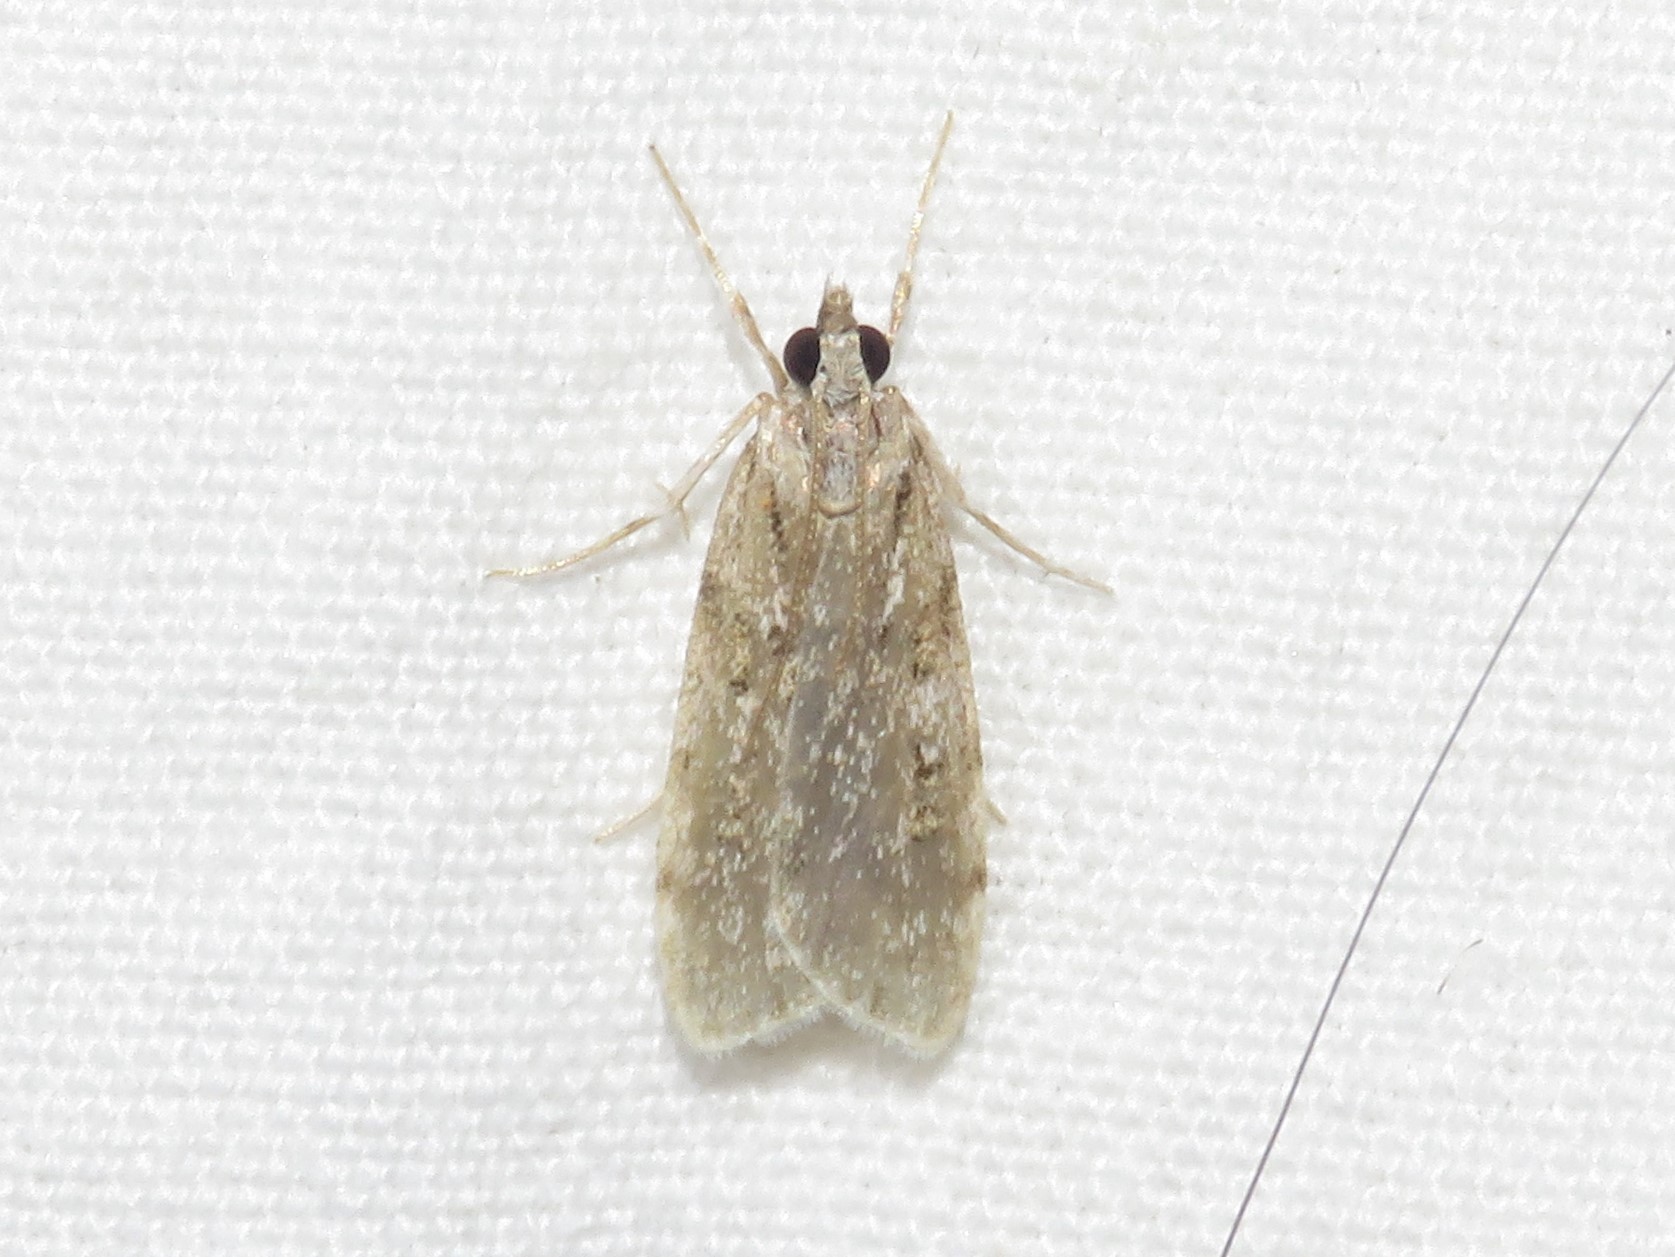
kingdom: Animalia
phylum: Arthropoda
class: Insecta
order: Lepidoptera
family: Crambidae
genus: Scoparia
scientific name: Scoparia biplagialis
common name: Double-striped scoparia moth
